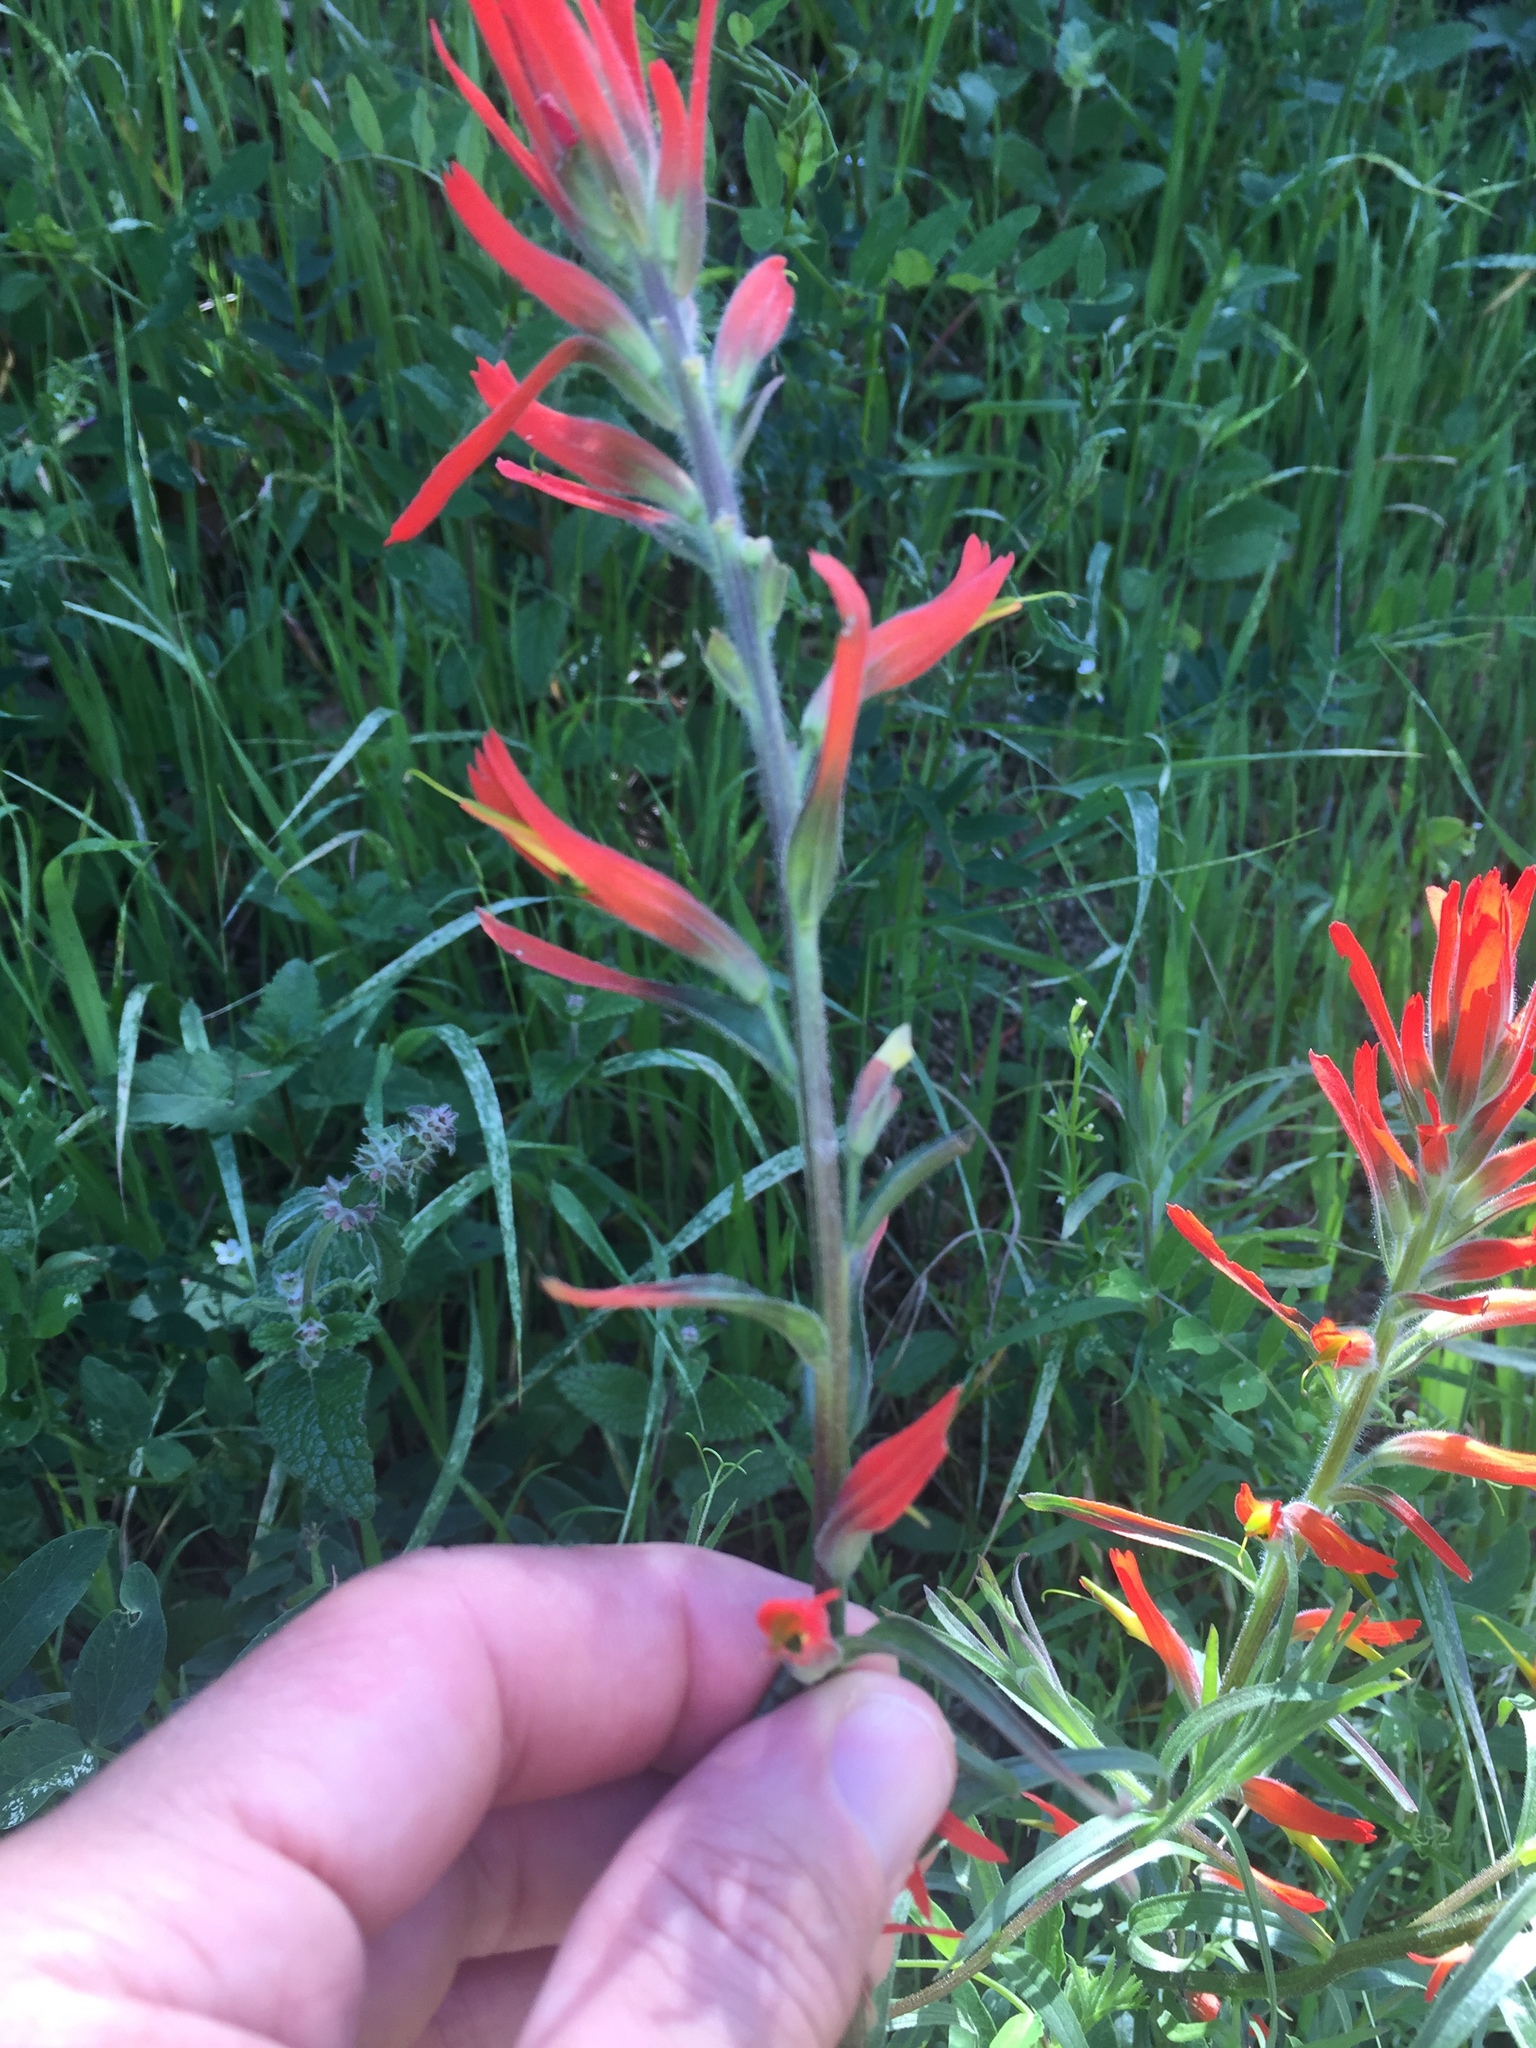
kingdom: Plantae
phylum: Tracheophyta
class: Magnoliopsida
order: Lamiales
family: Orobanchaceae
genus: Castilleja
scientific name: Castilleja subinclusa
